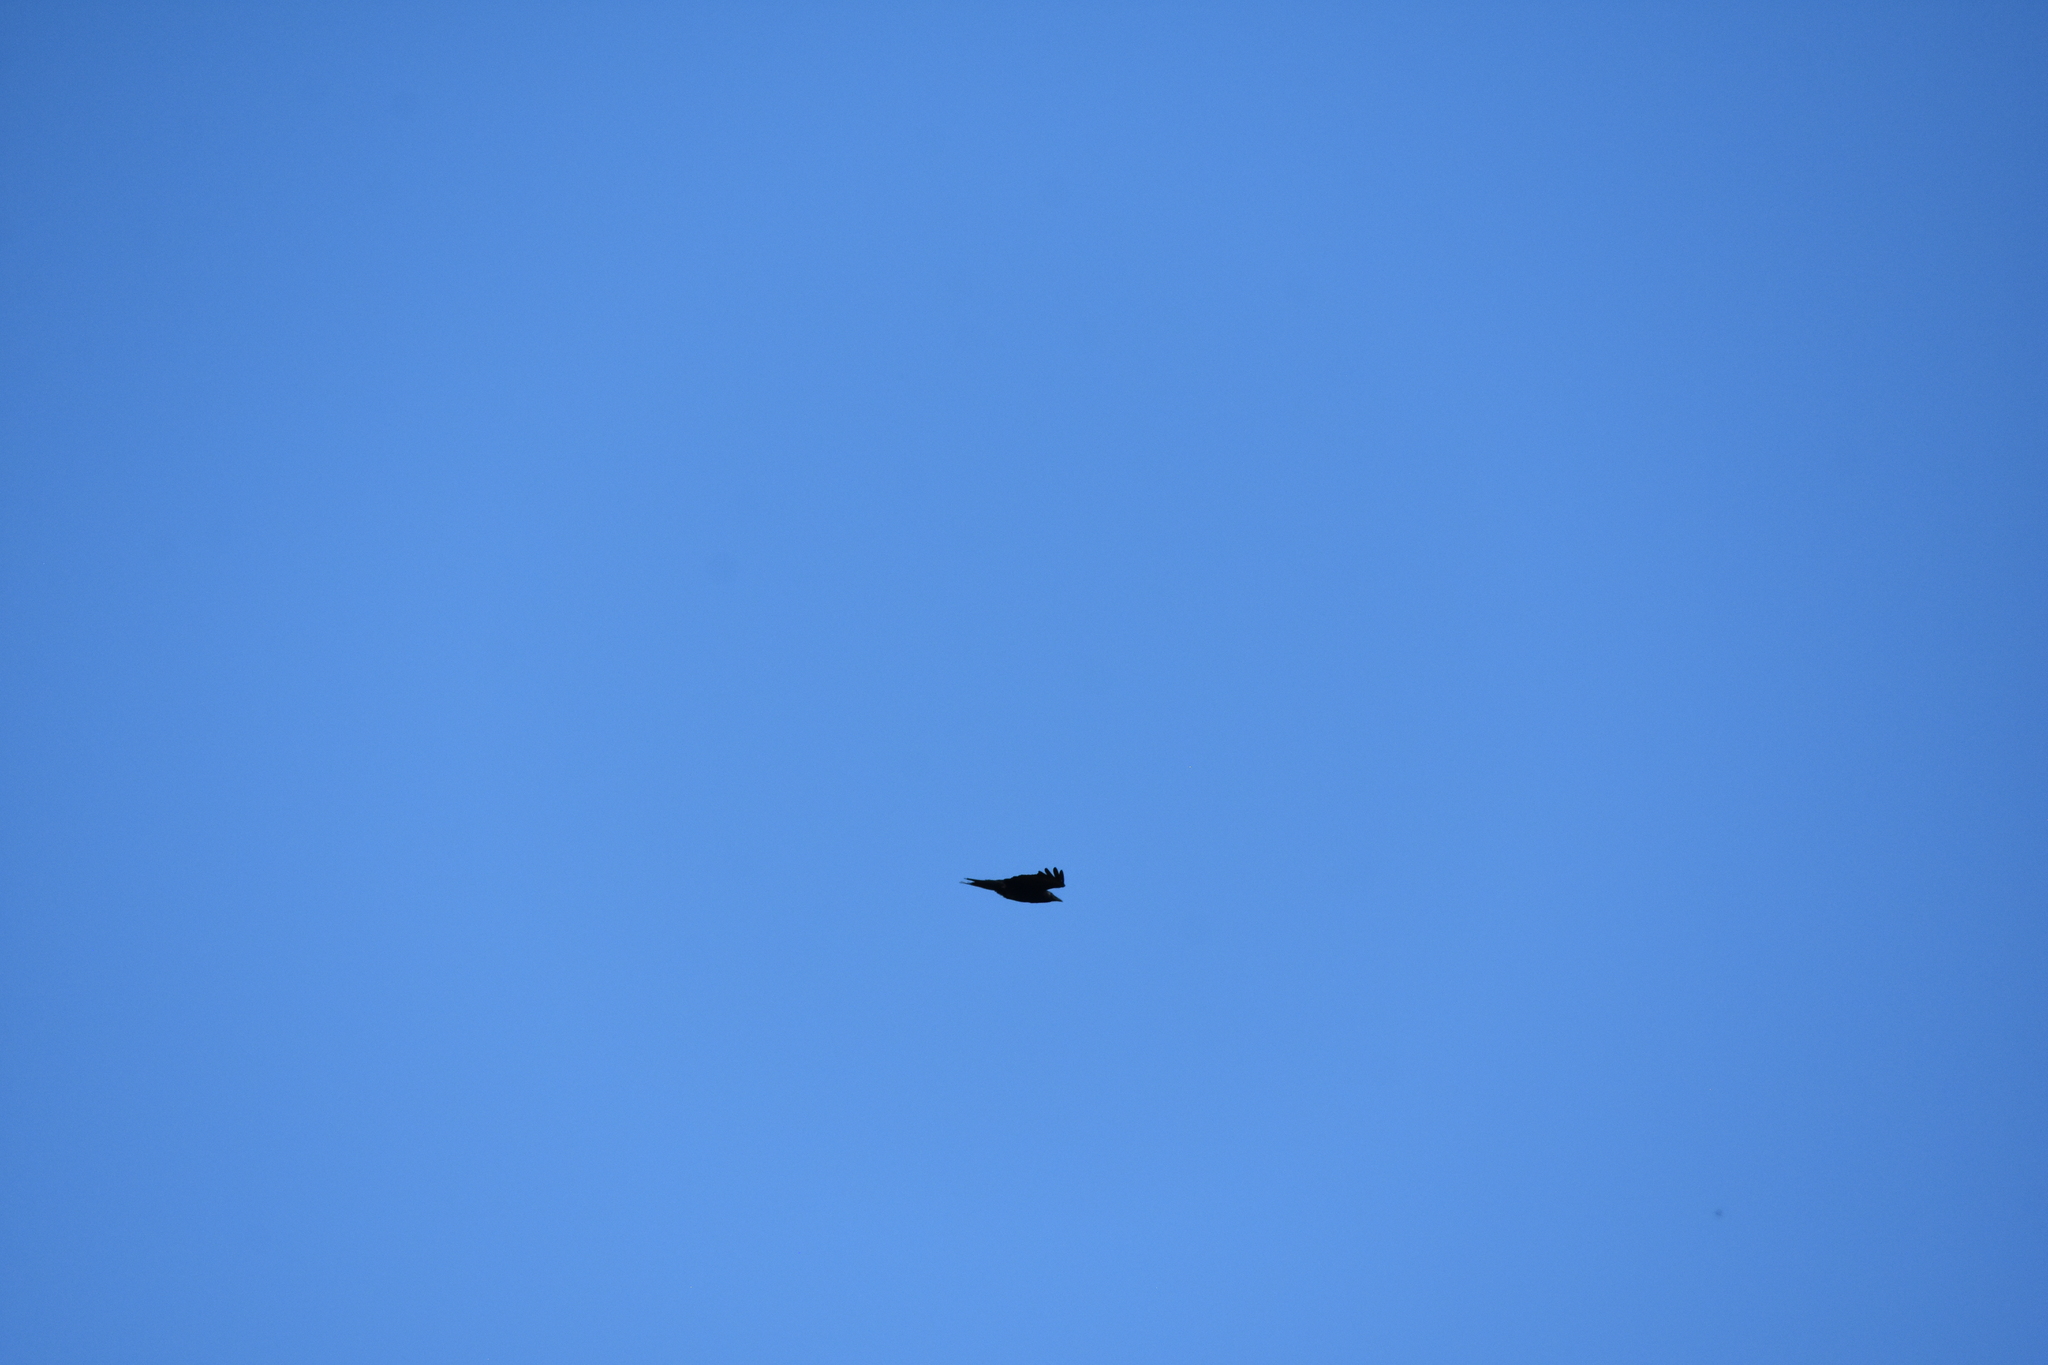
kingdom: Animalia
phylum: Chordata
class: Aves
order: Passeriformes
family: Corvidae
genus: Corvus
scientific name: Corvus
